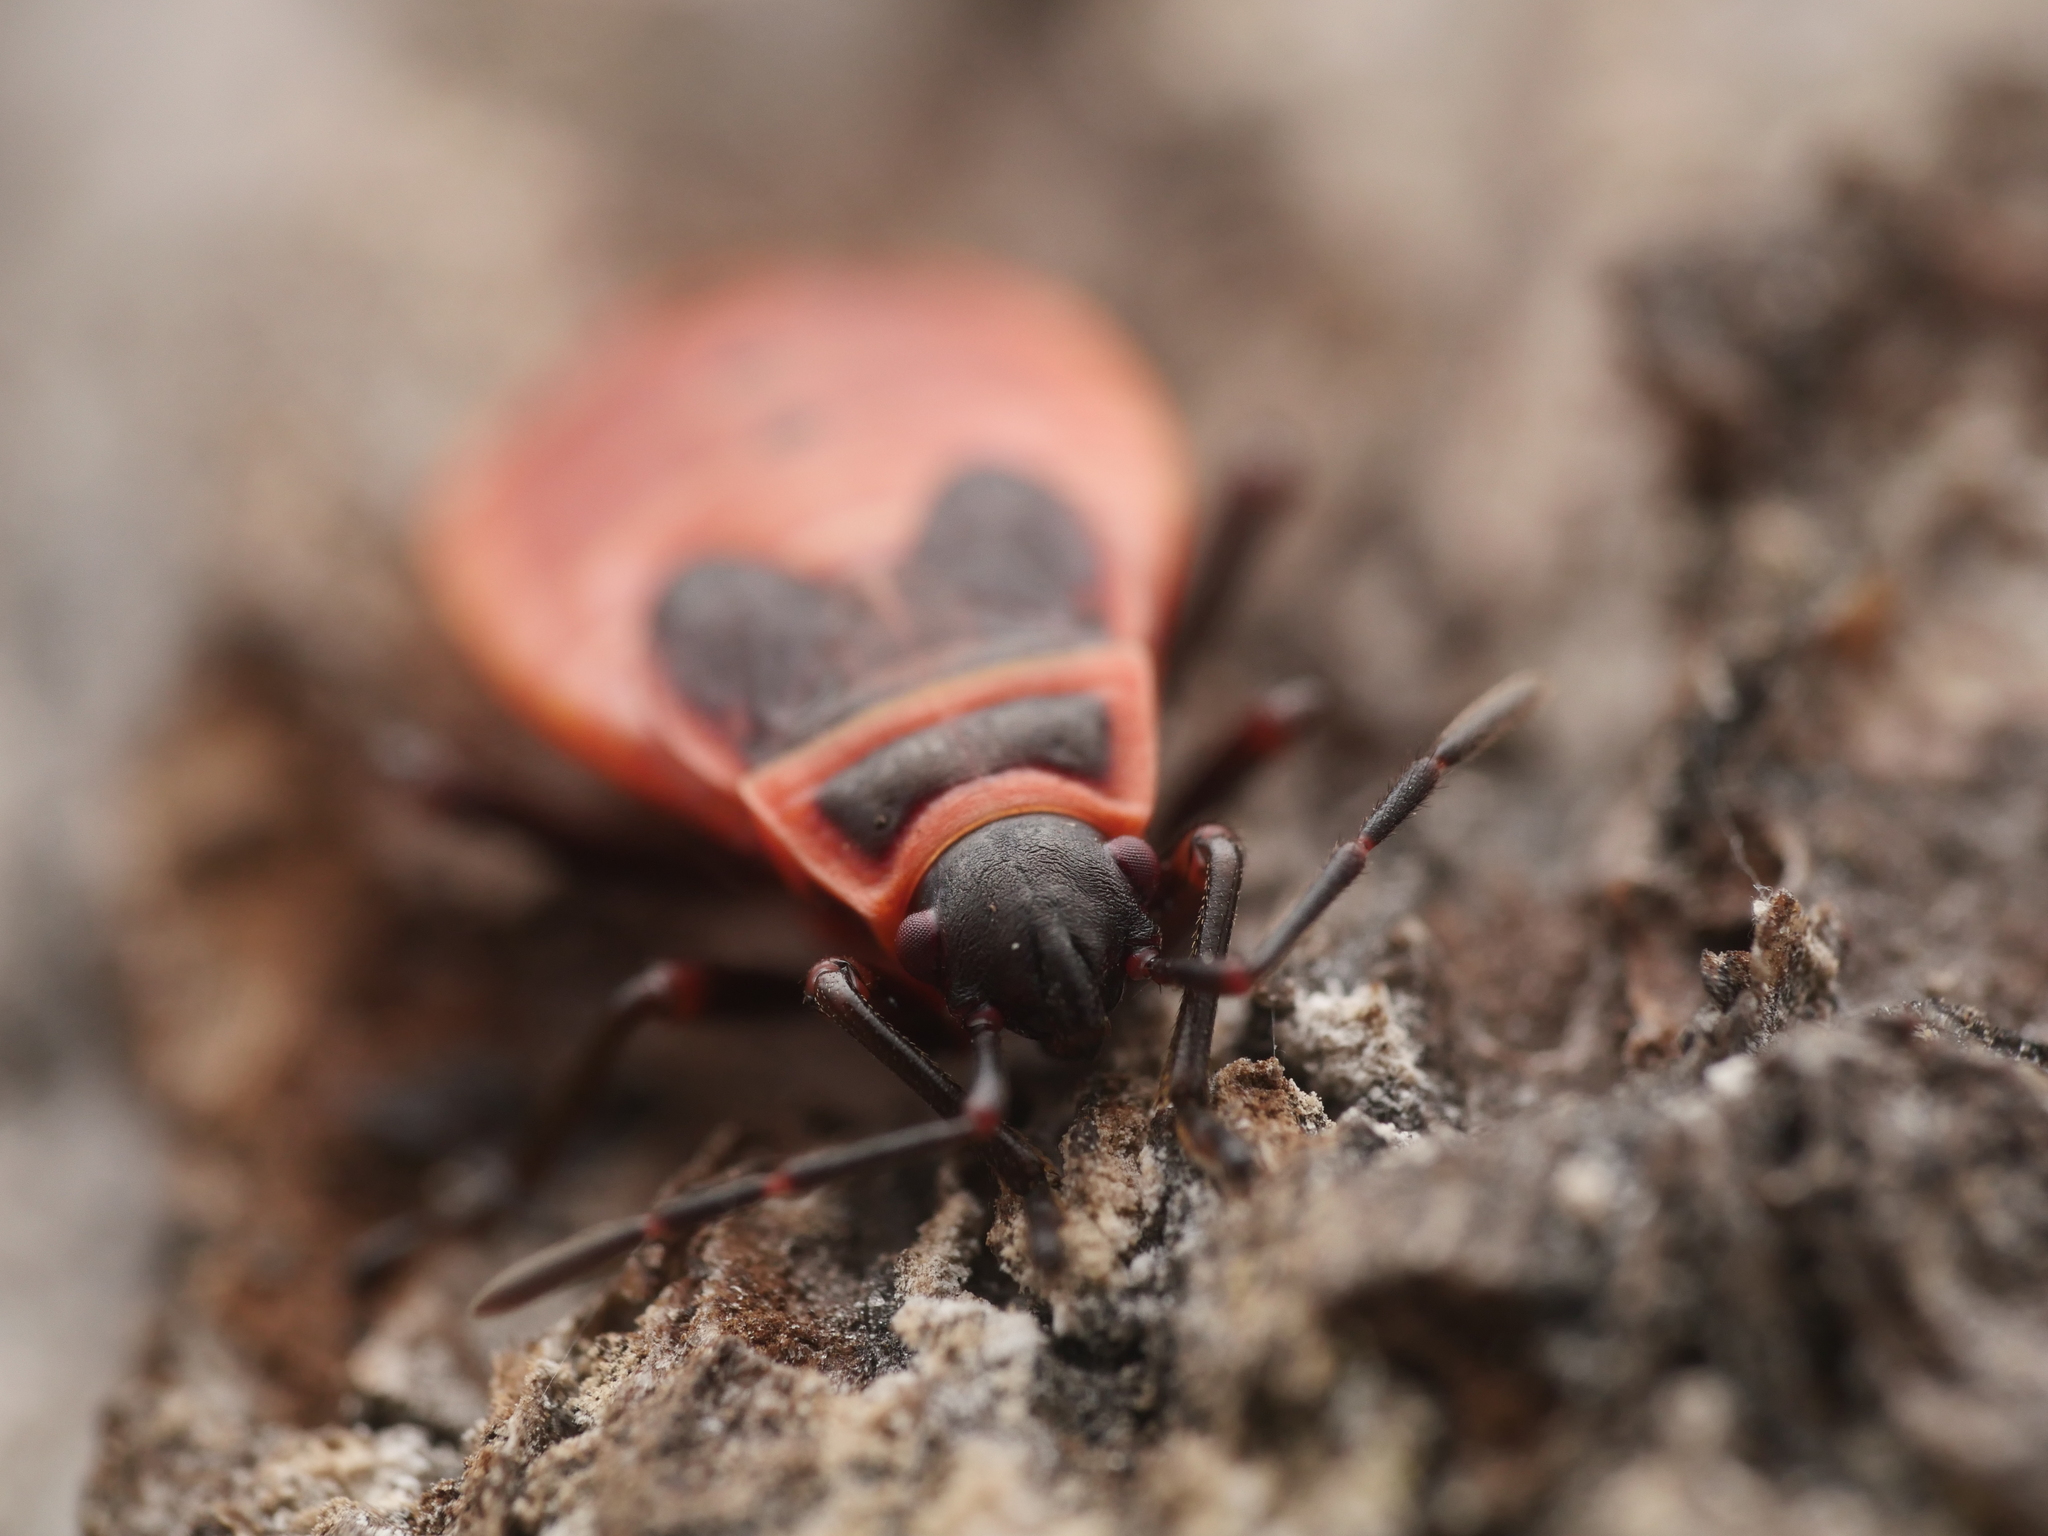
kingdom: Animalia
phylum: Arthropoda
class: Insecta
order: Hemiptera
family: Pyrrhocoridae
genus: Pyrrhocoris
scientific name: Pyrrhocoris apterus
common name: Firebug
